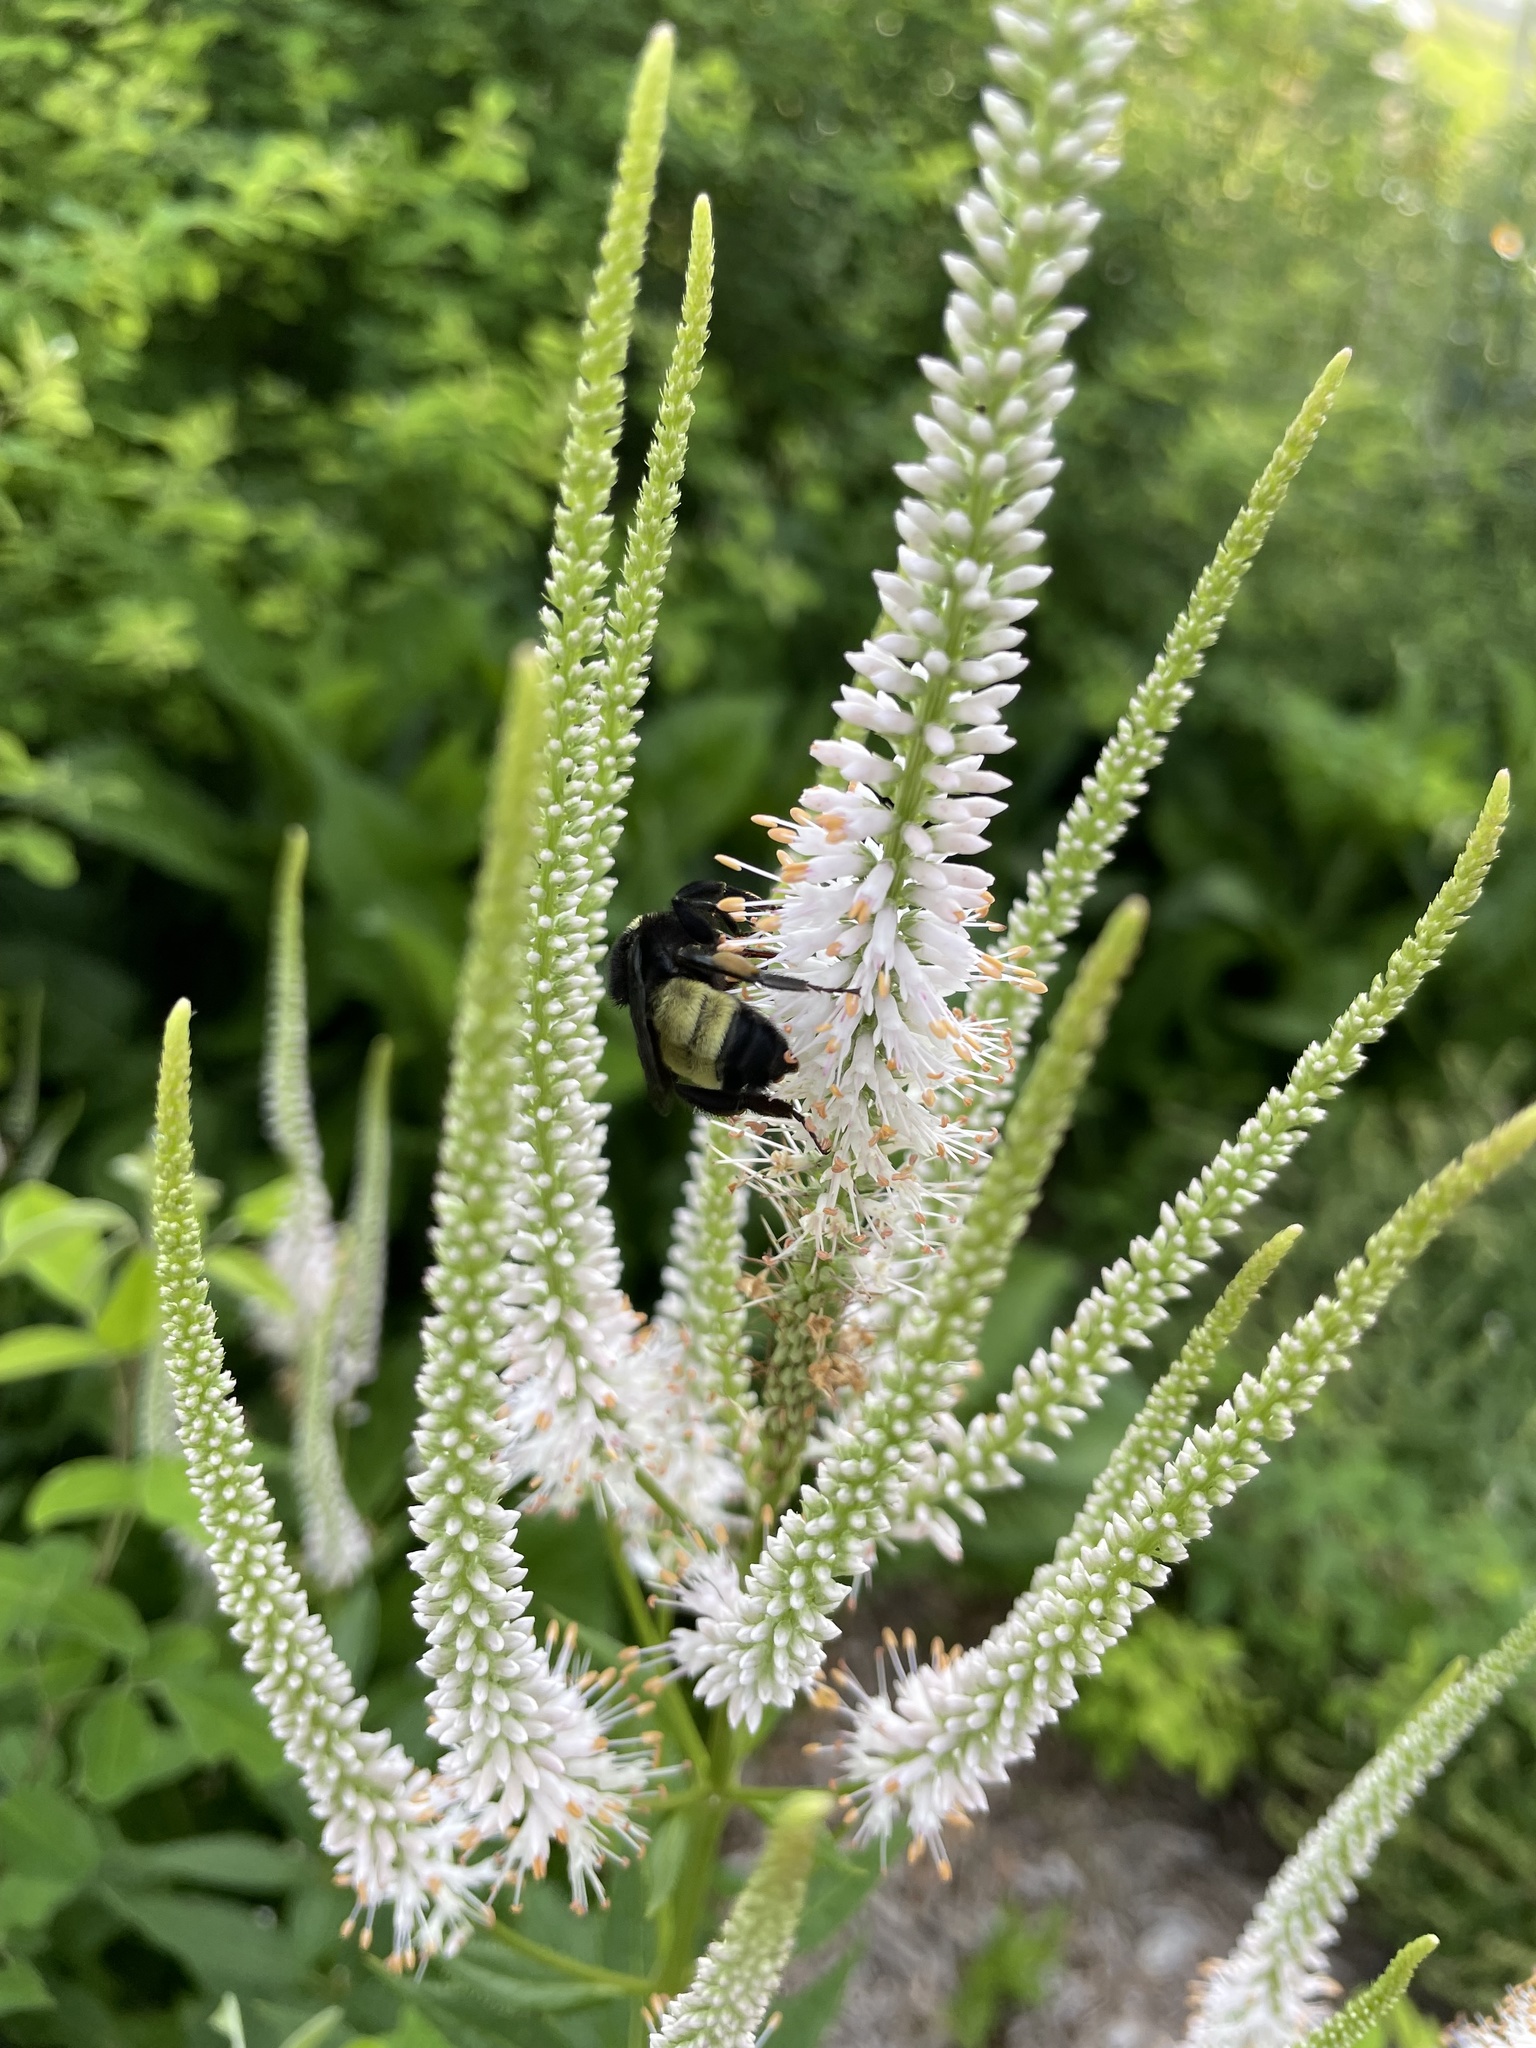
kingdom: Animalia
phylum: Arthropoda
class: Insecta
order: Hymenoptera
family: Apidae
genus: Bombus
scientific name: Bombus pensylvanicus
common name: Bumble bee
